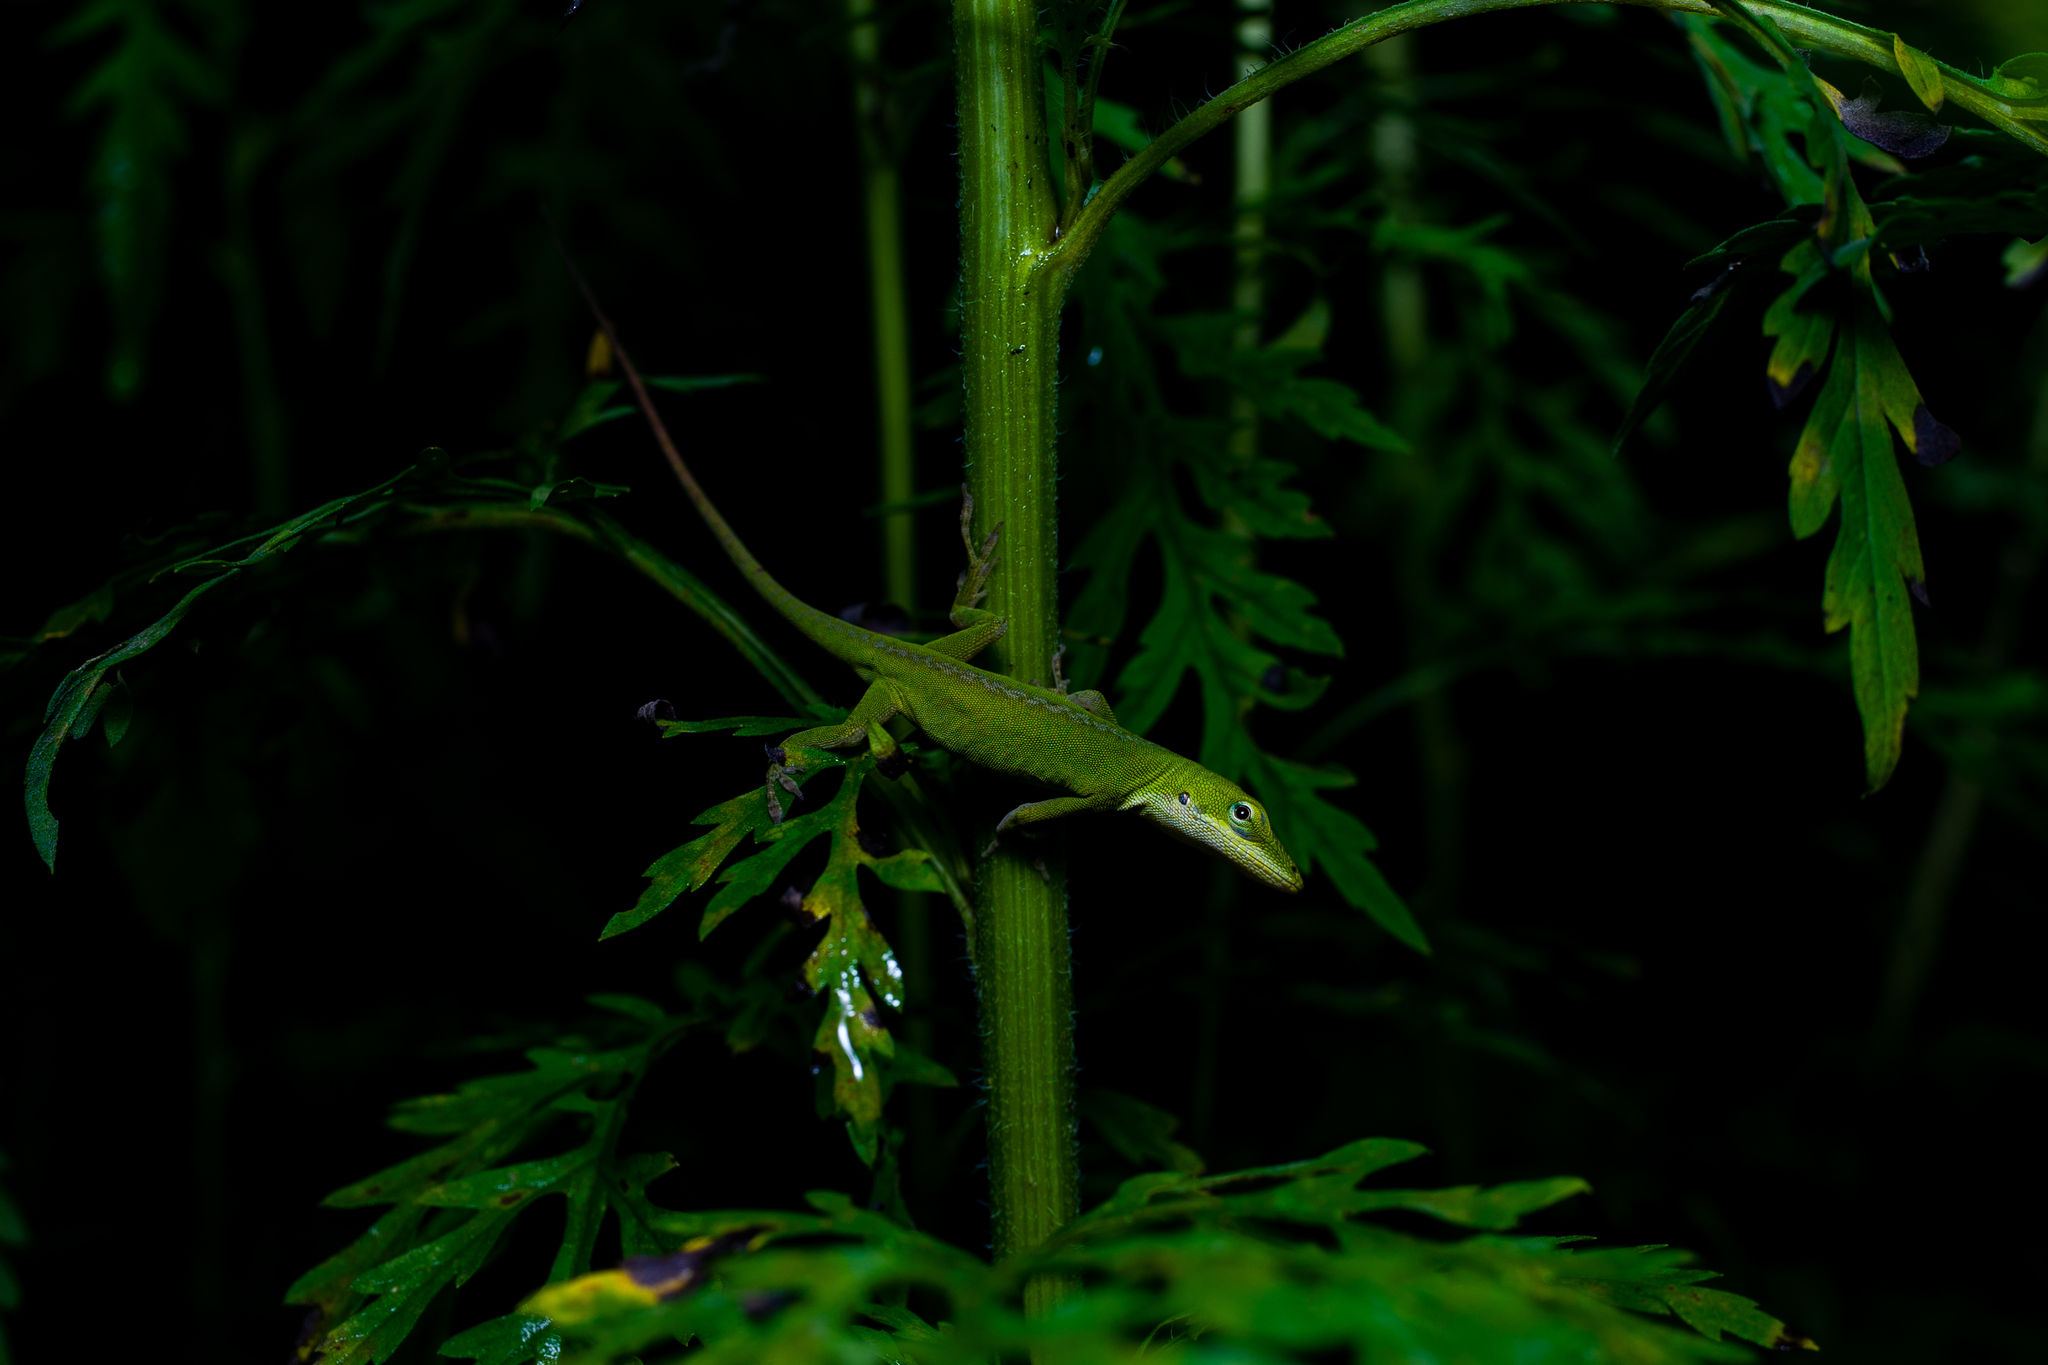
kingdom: Animalia
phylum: Chordata
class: Squamata
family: Dactyloidae
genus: Anolis
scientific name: Anolis carolinensis
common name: Green anole
